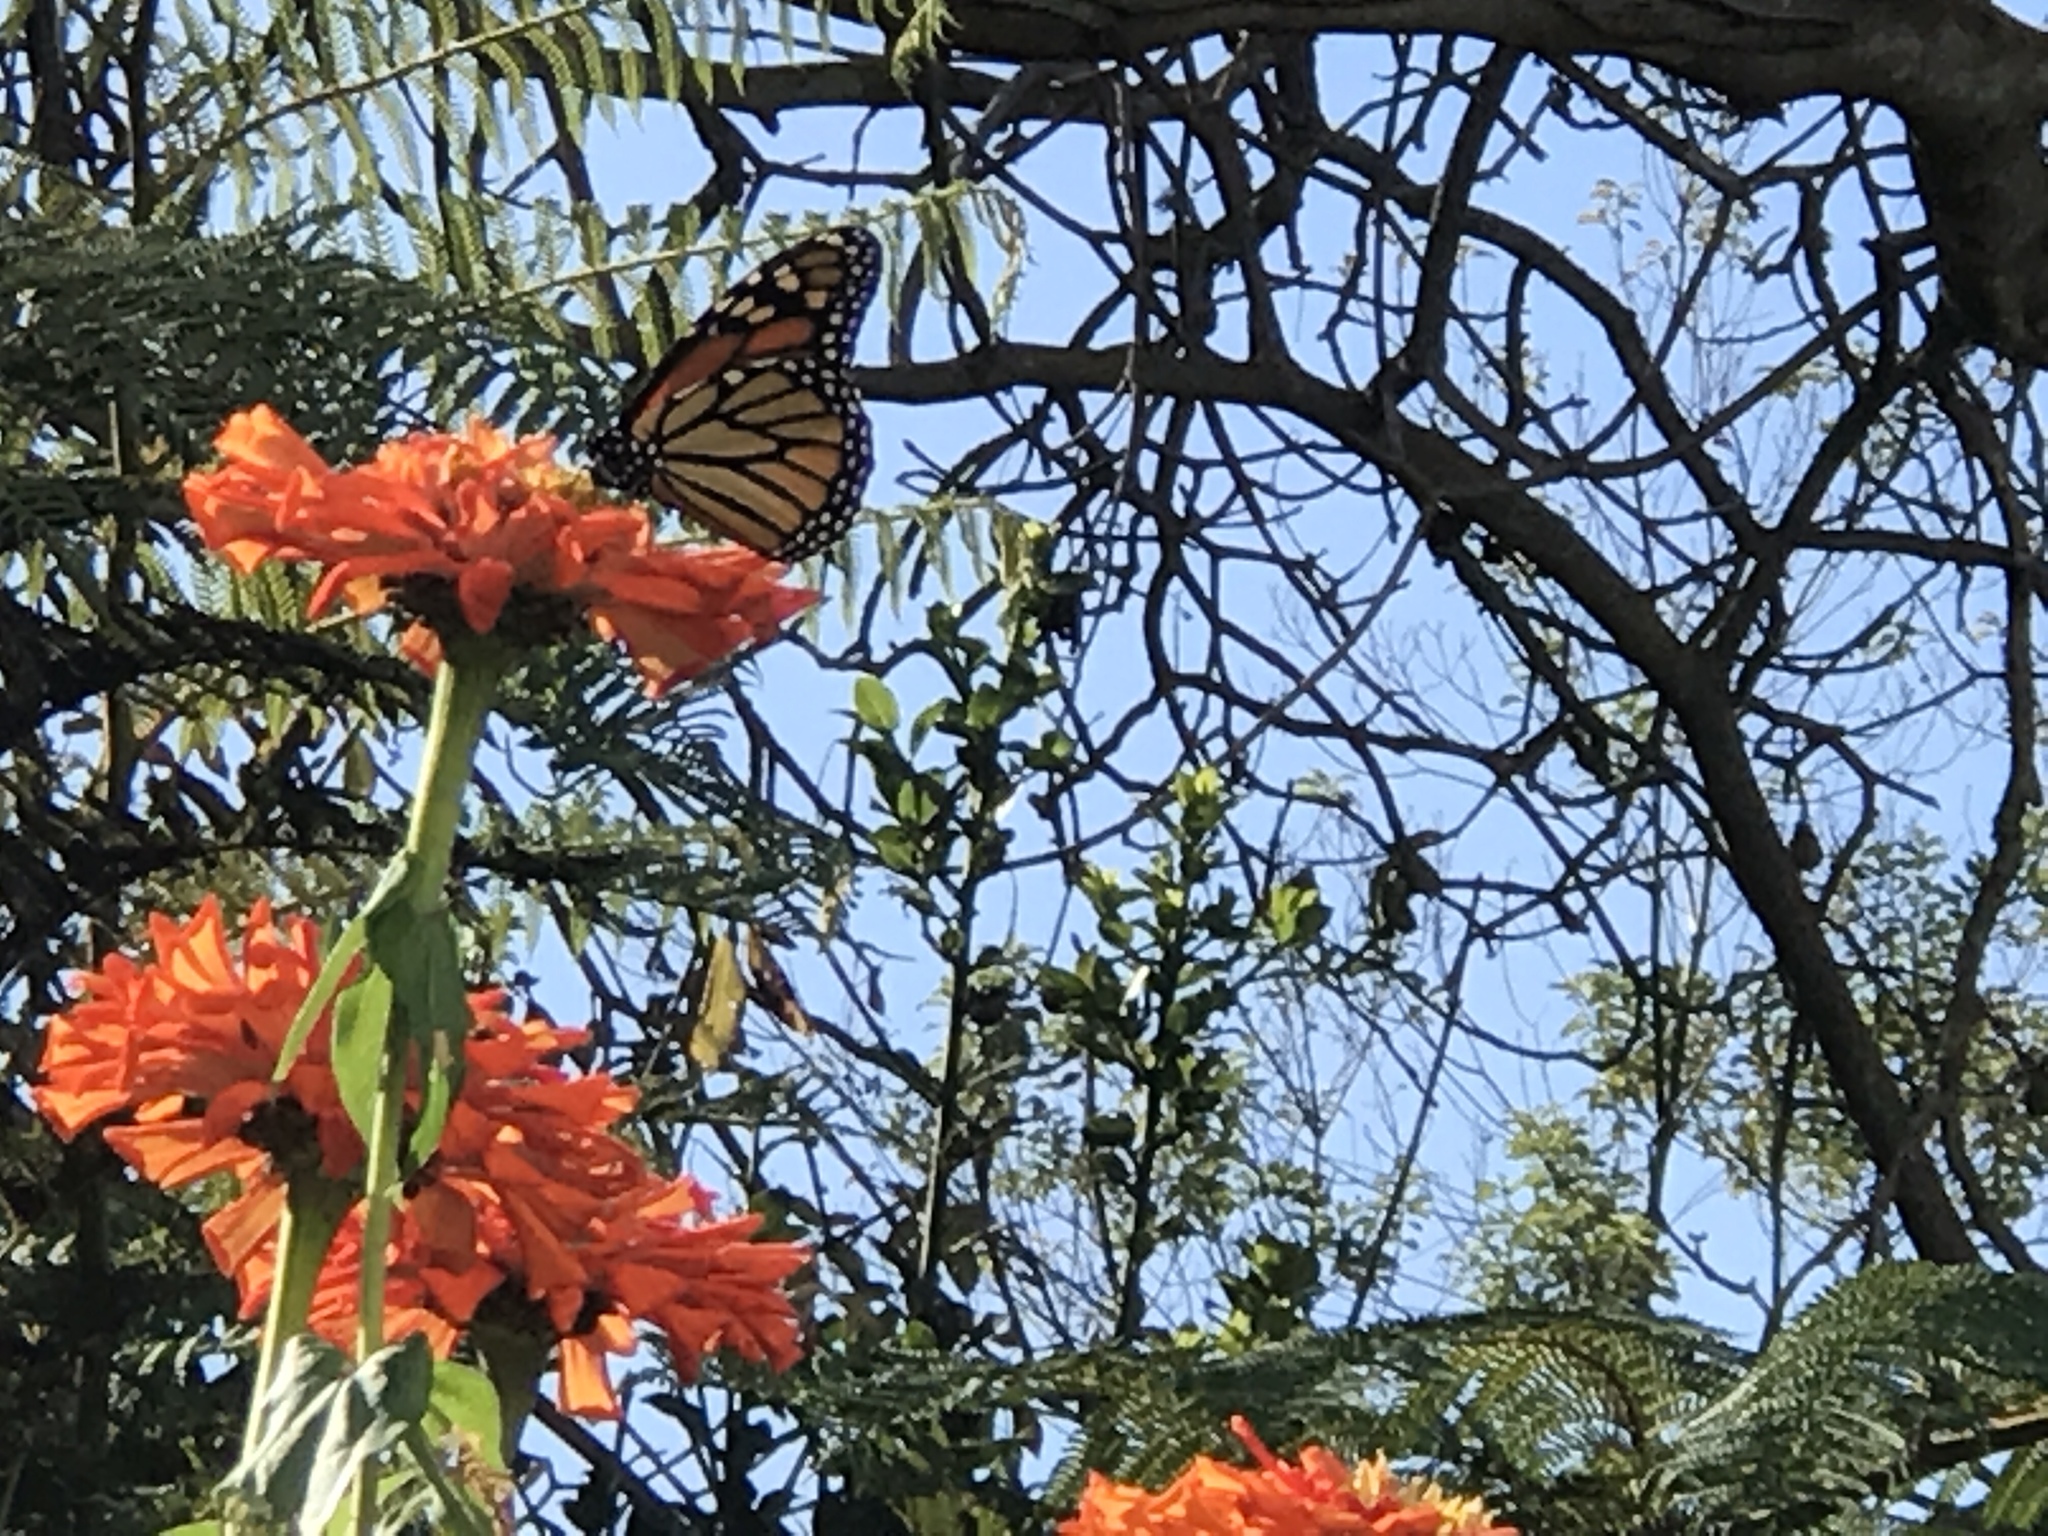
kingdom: Animalia
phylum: Arthropoda
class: Insecta
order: Lepidoptera
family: Nymphalidae
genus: Danaus
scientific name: Danaus plexippus
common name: Monarch
